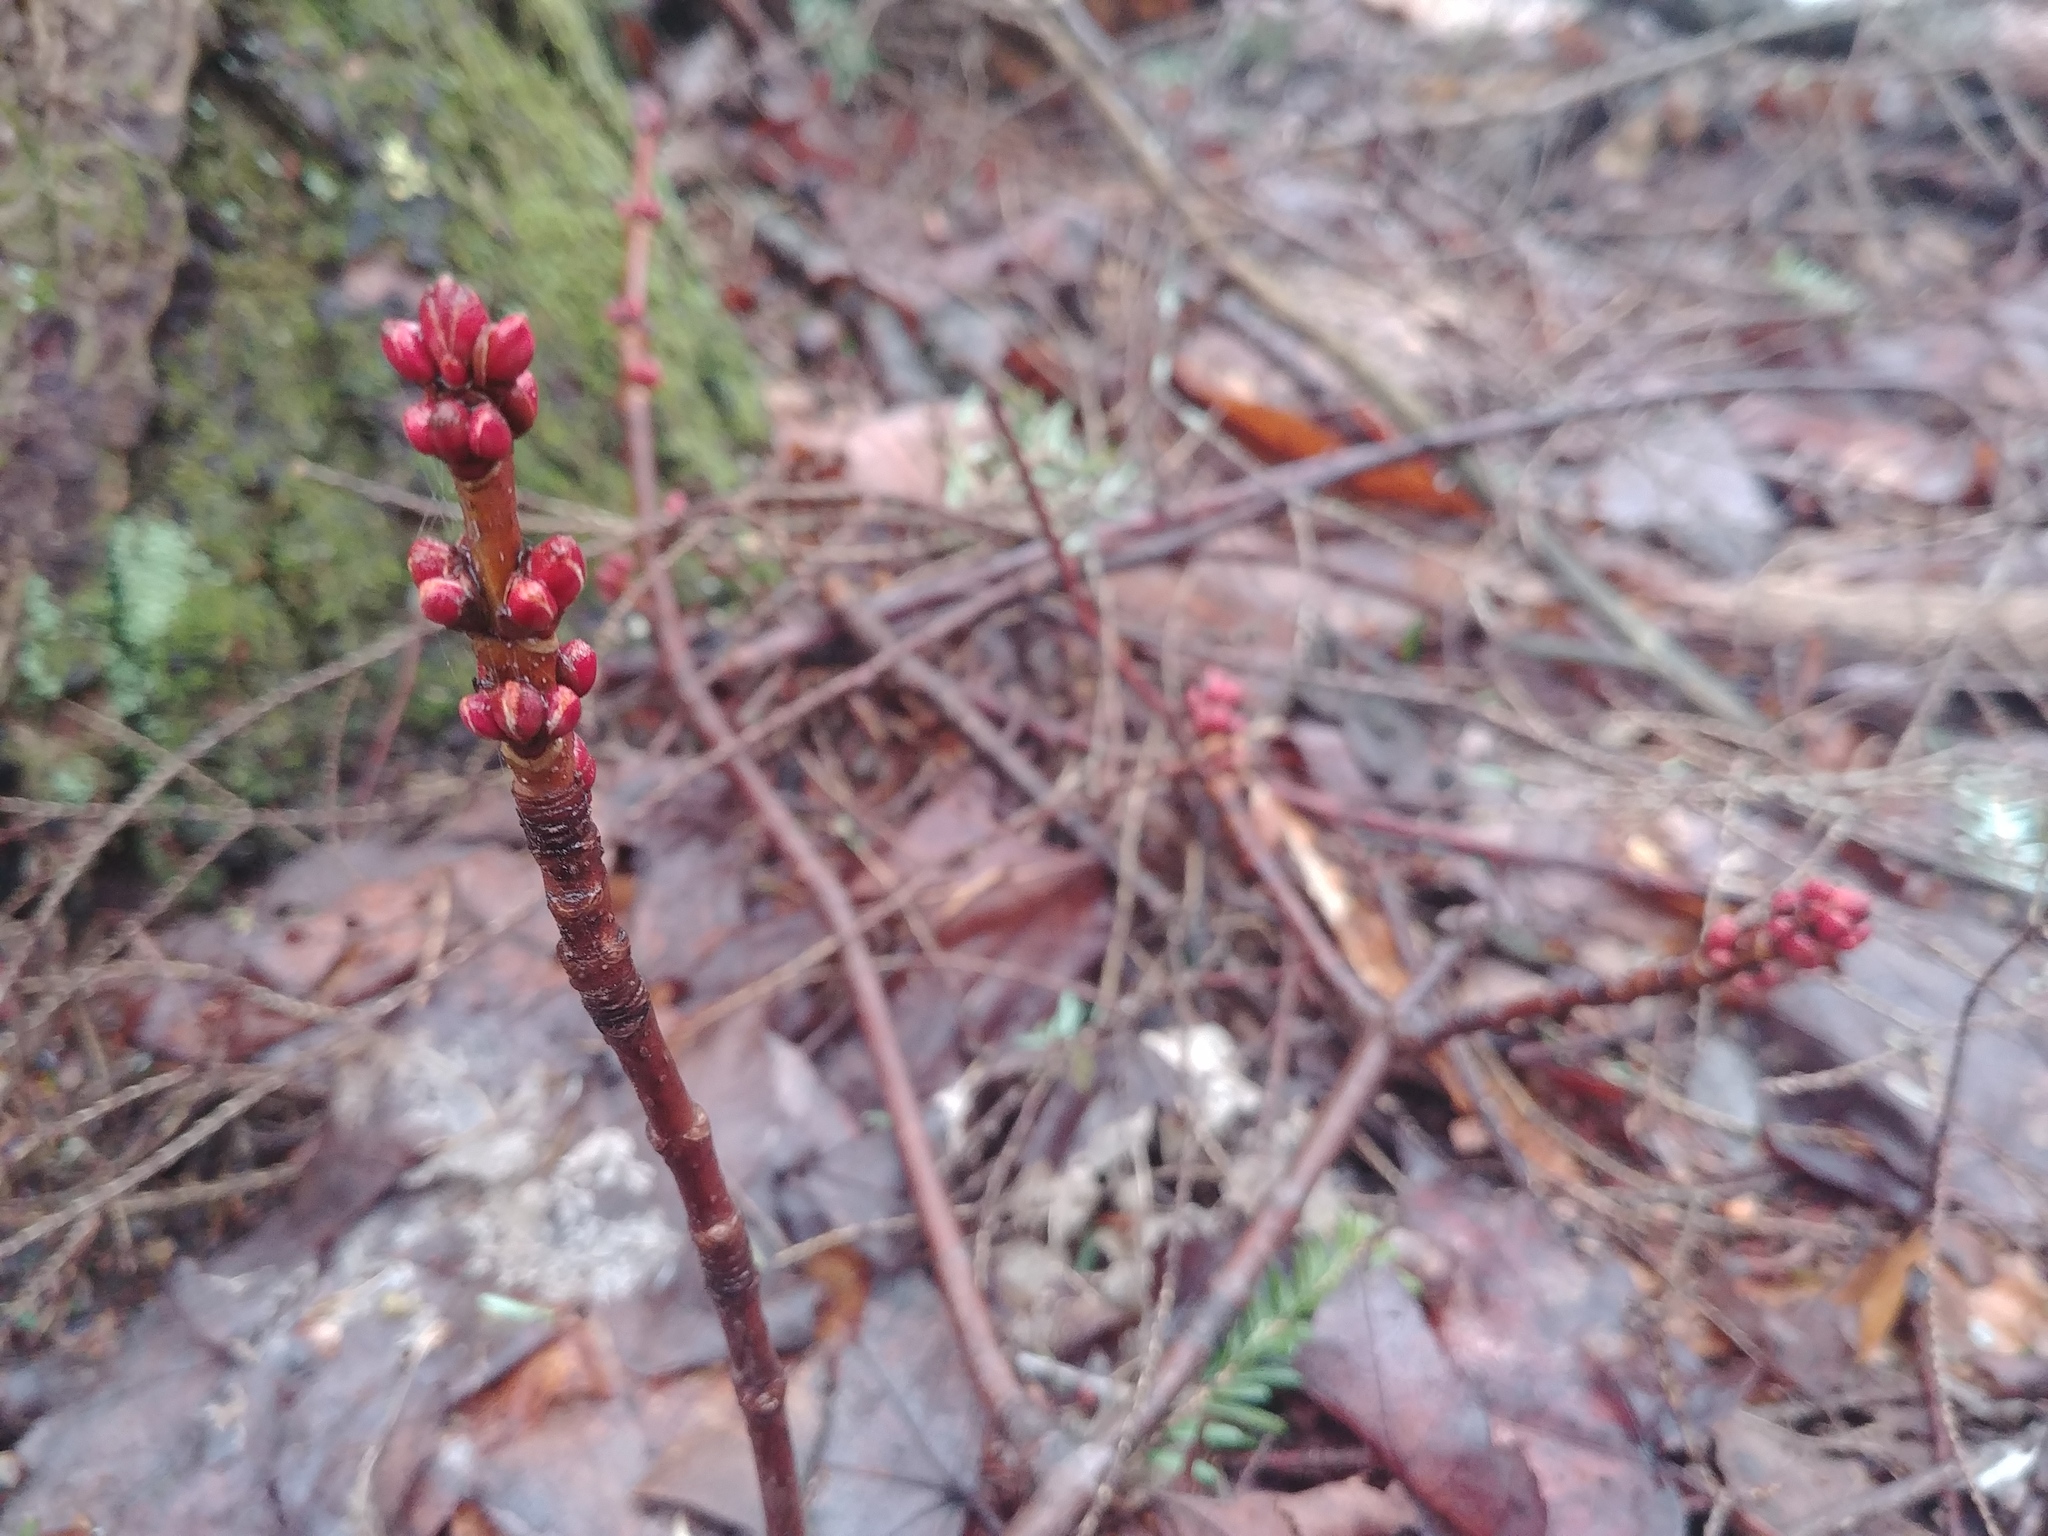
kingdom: Plantae
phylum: Tracheophyta
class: Magnoliopsida
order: Sapindales
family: Sapindaceae
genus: Acer
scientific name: Acer rubrum
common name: Red maple
